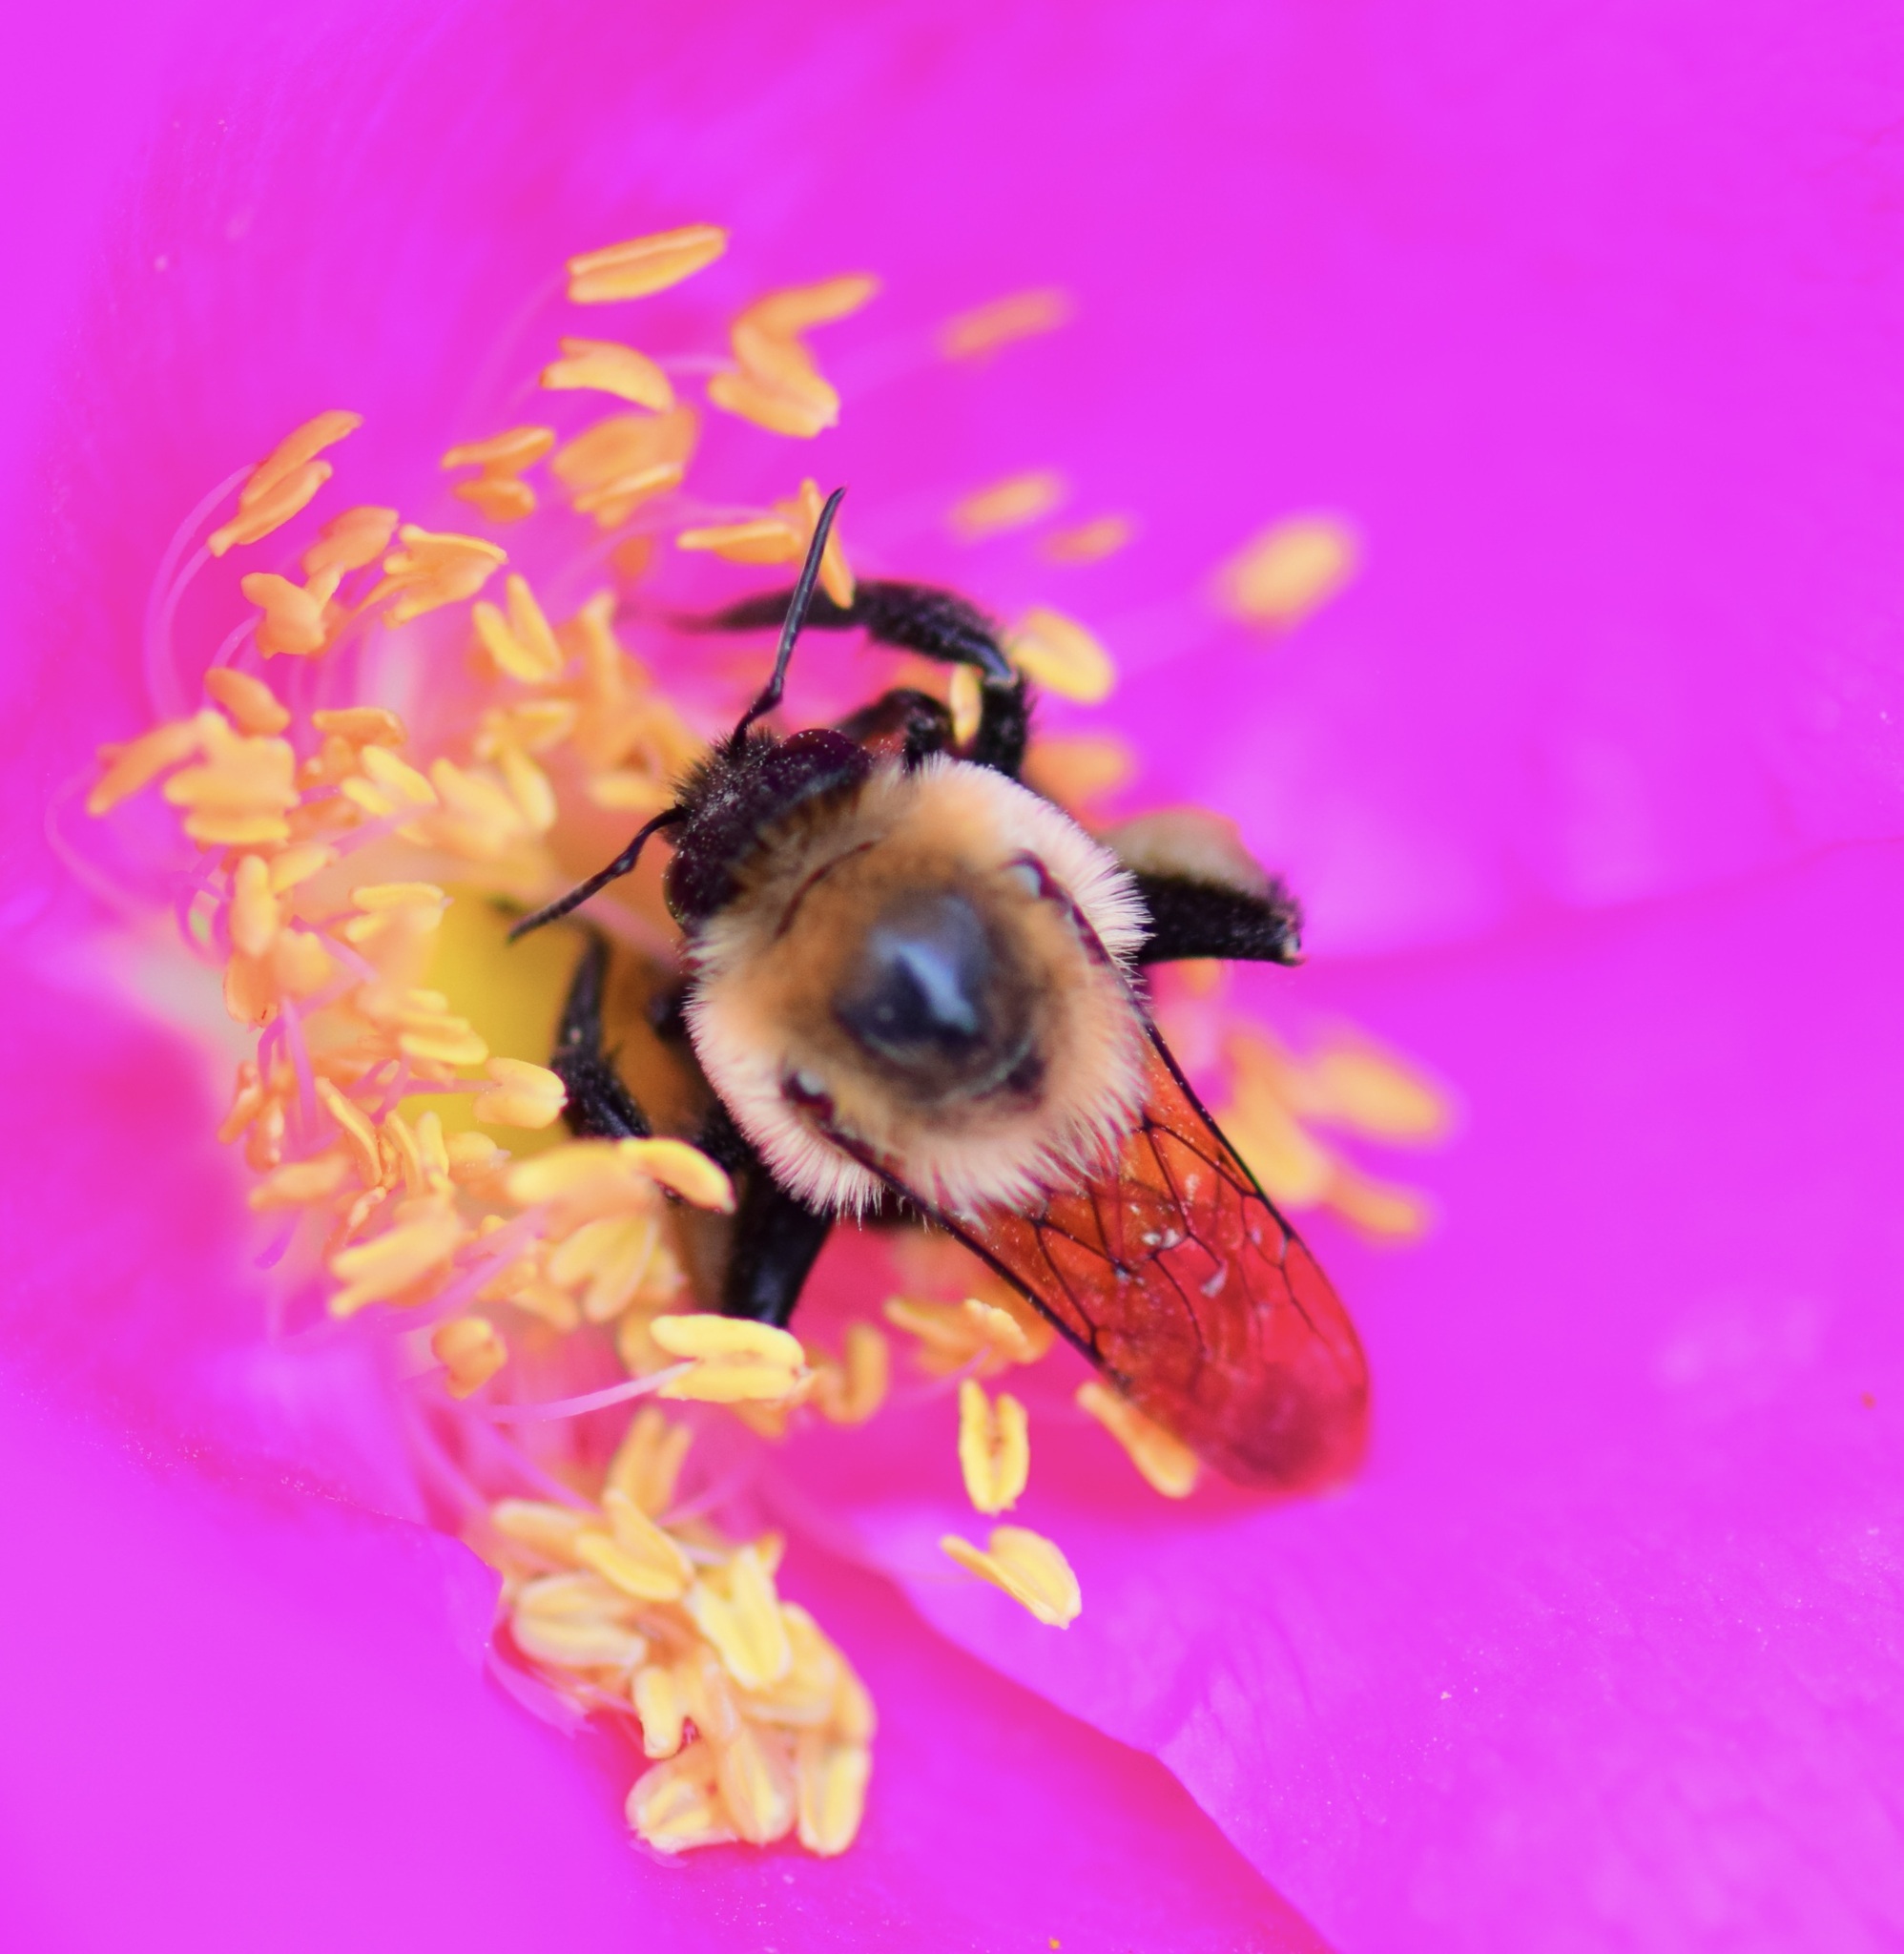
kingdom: Animalia
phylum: Arthropoda
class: Insecta
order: Hymenoptera
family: Apidae
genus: Bombus
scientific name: Bombus griseocollis
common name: Brown-belted bumble bee
